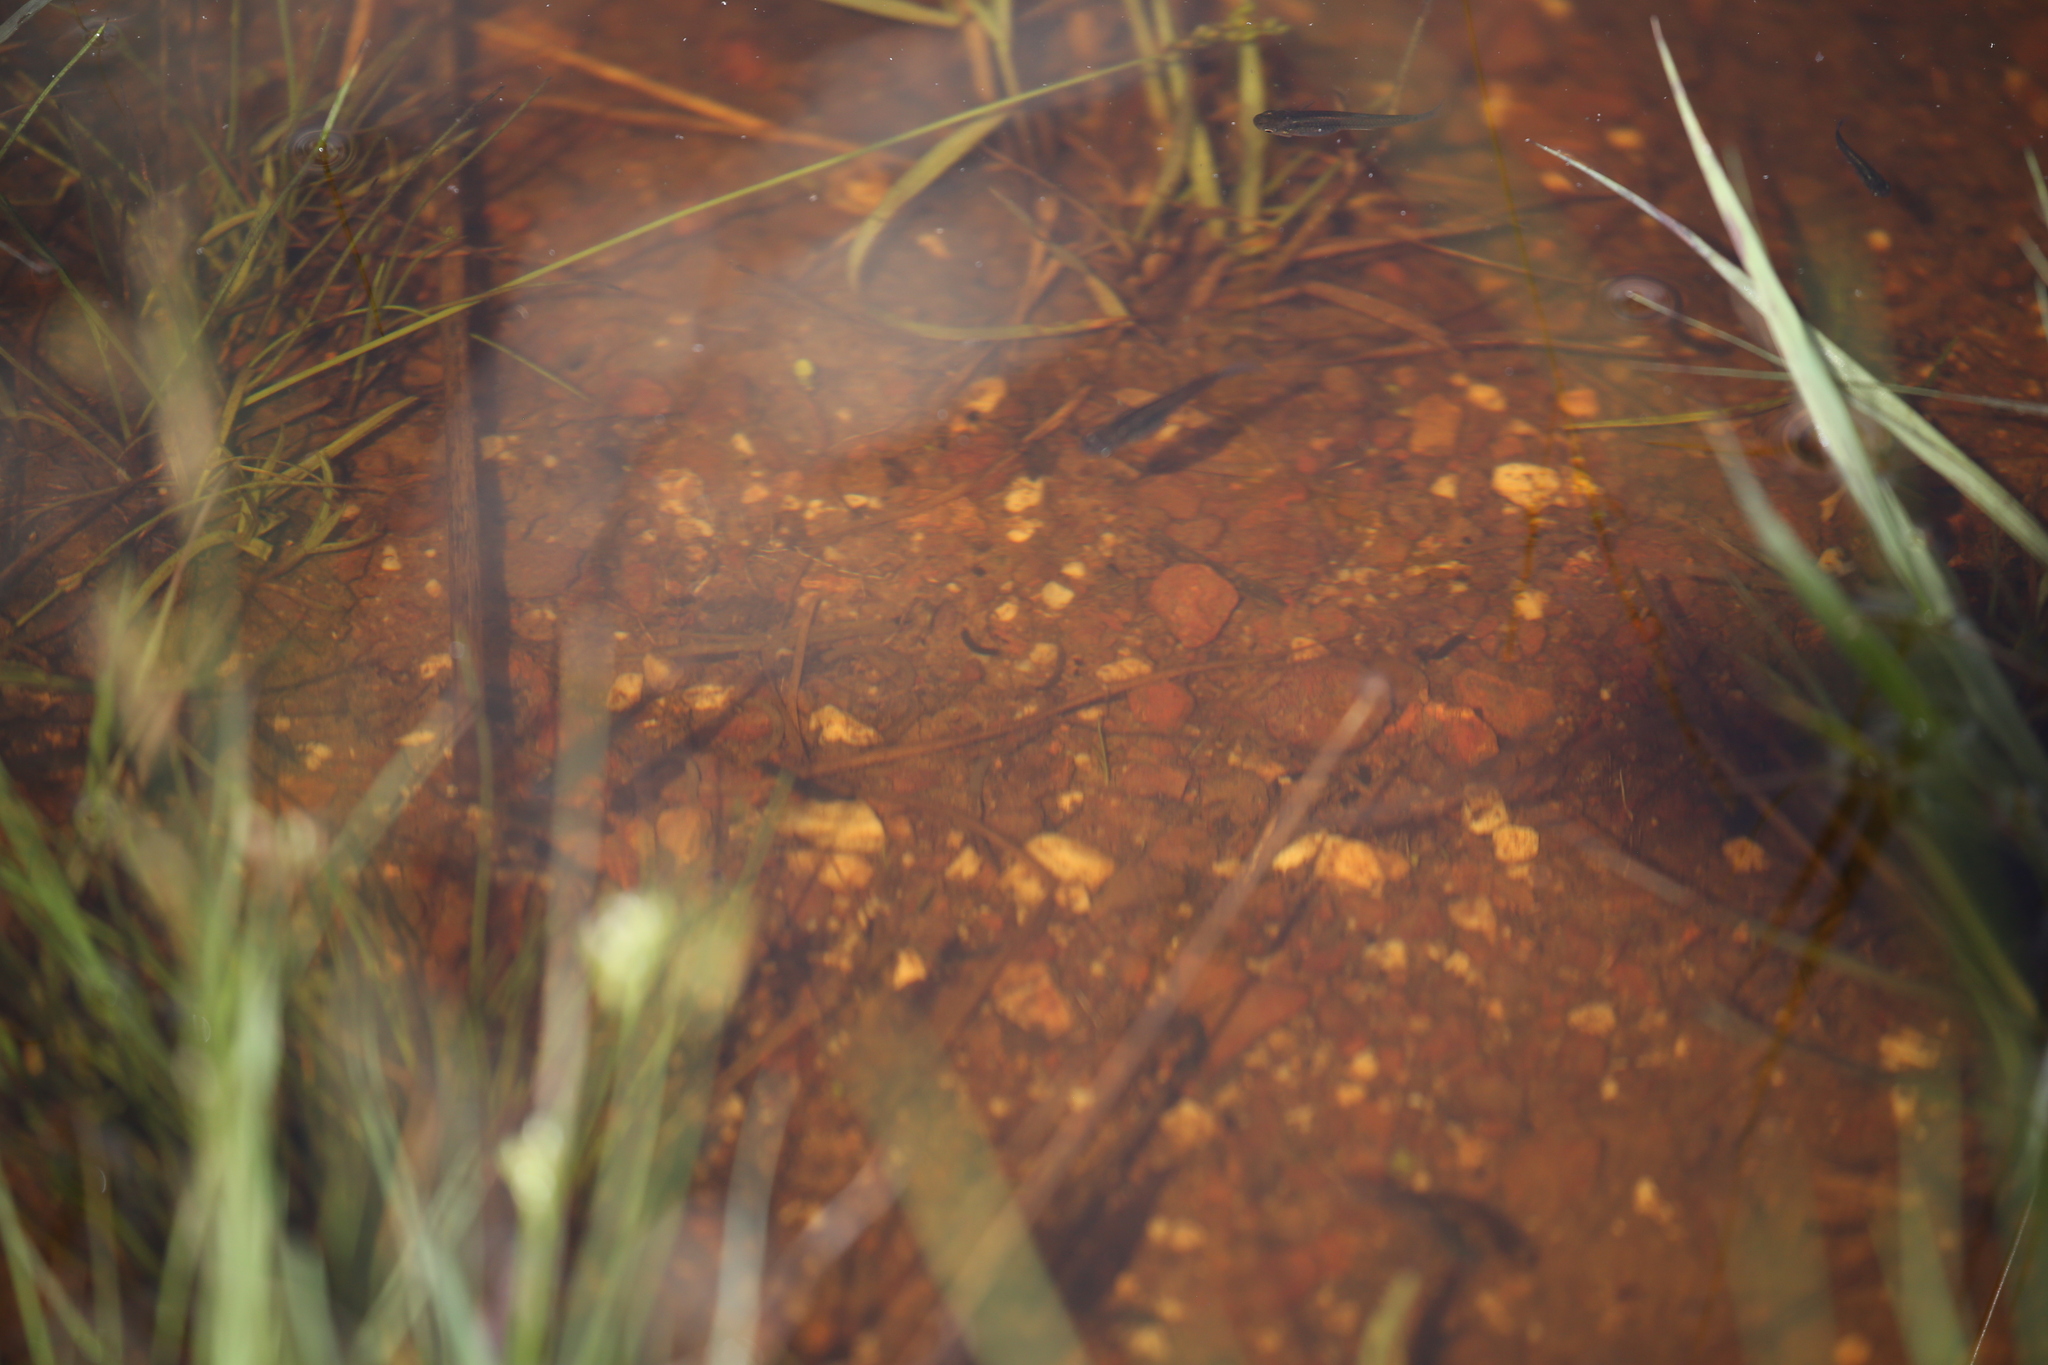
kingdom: Animalia
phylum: Chordata
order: Cyprinodontiformes
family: Poeciliidae
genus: Gambusia
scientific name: Gambusia holbrooki
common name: Eastern mosquitofish
